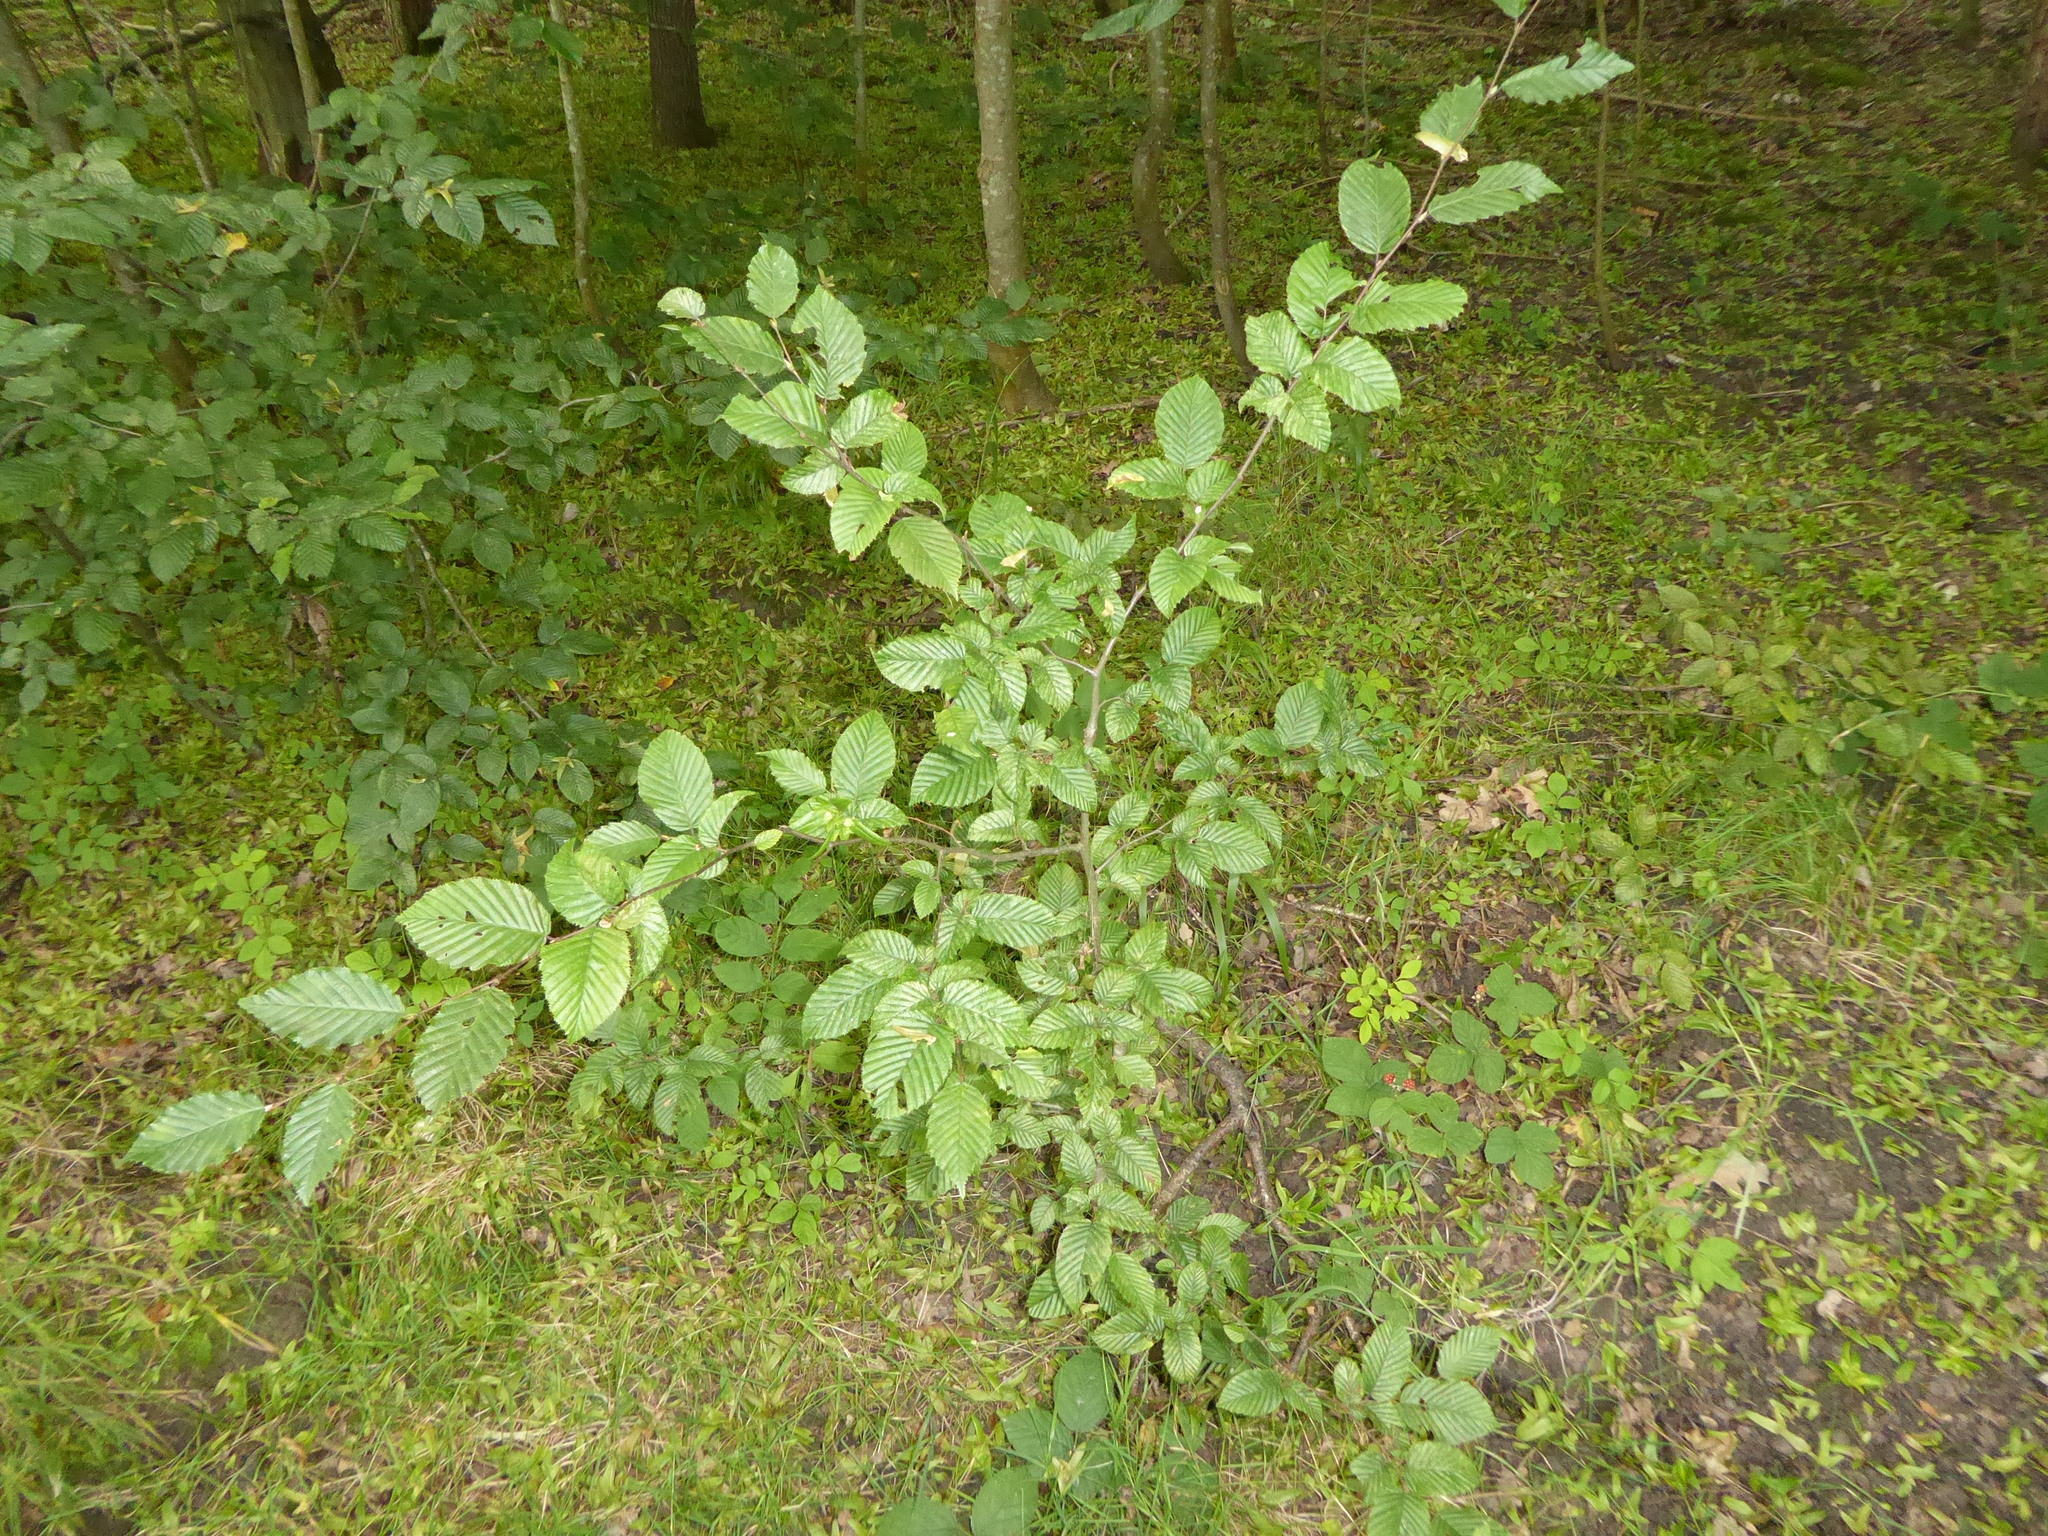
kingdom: Plantae
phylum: Tracheophyta
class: Magnoliopsida
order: Fagales
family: Betulaceae
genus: Carpinus
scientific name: Carpinus betulus
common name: Hornbeam
